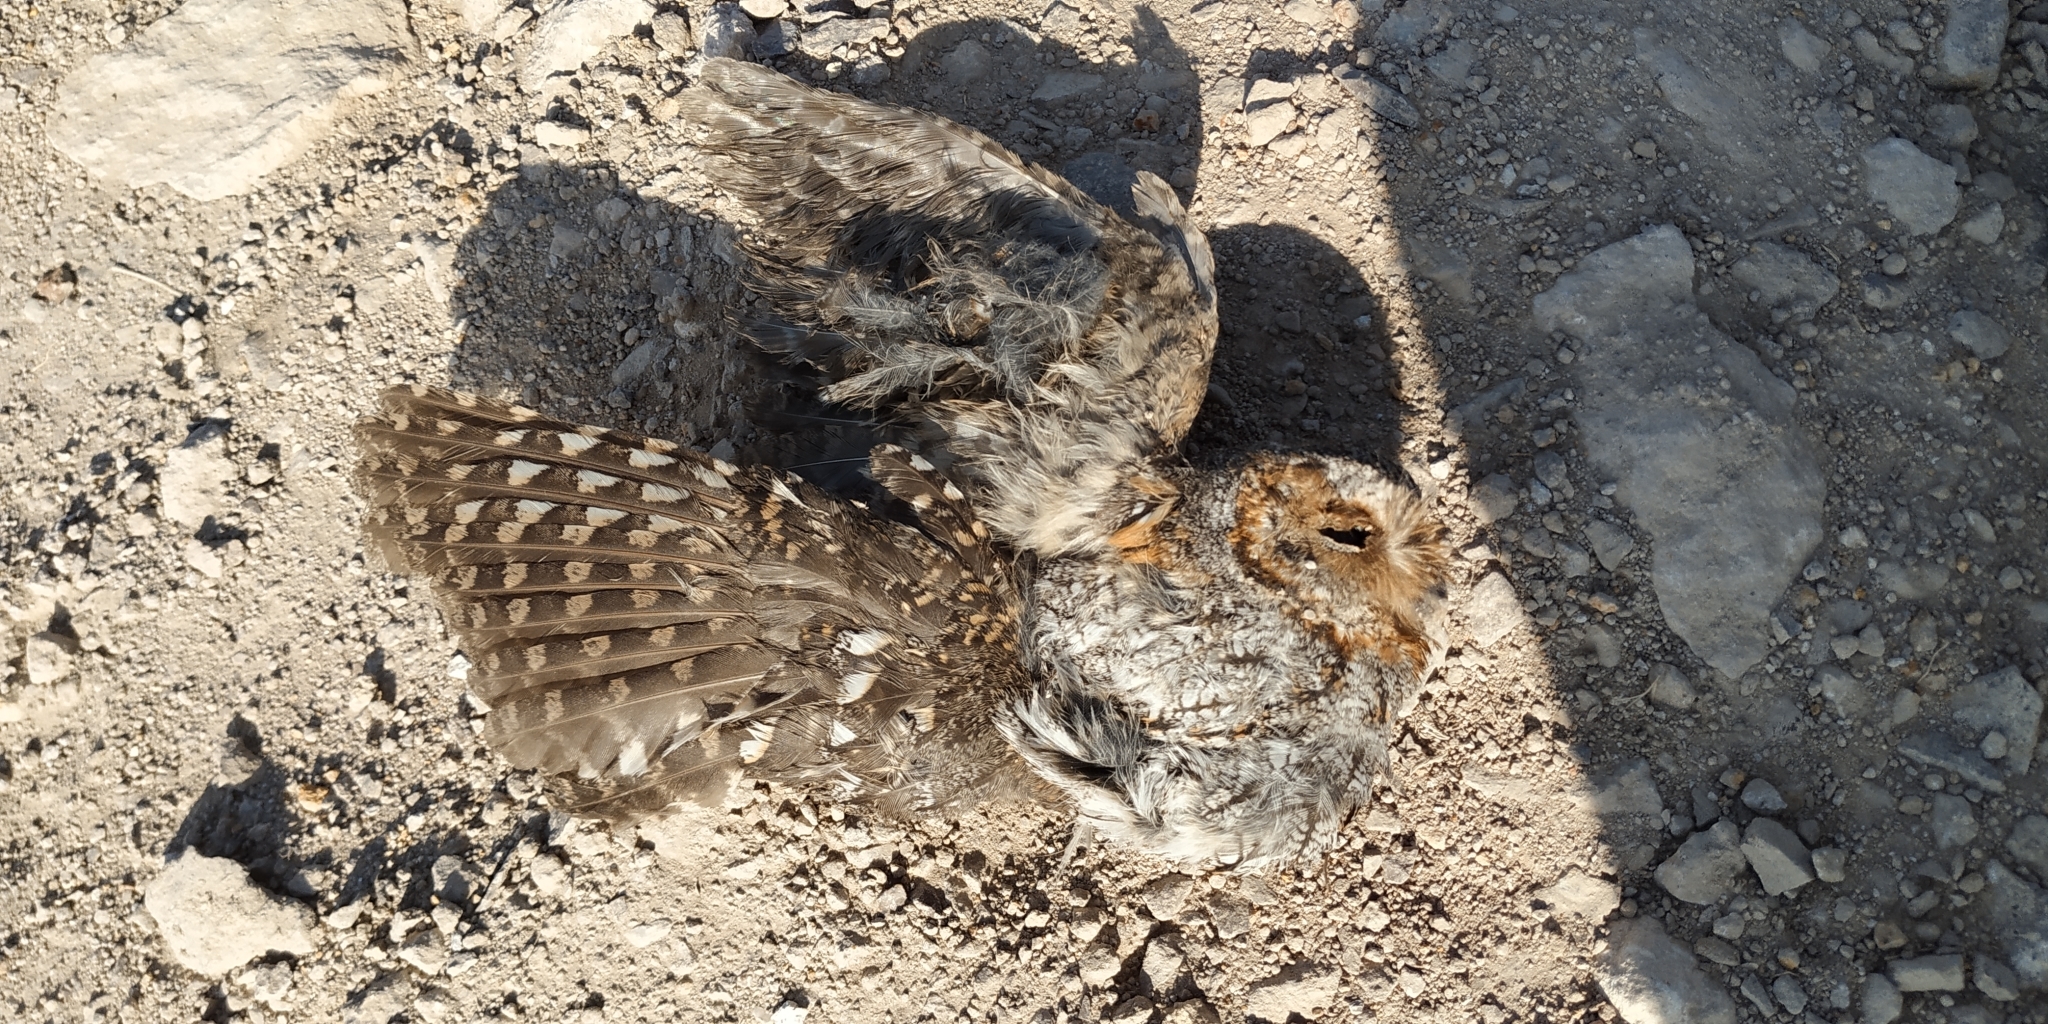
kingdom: Animalia
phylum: Chordata
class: Aves
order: Strigiformes
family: Strigidae
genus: Psiloscops
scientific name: Psiloscops flammeolus
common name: Flammulated owl
